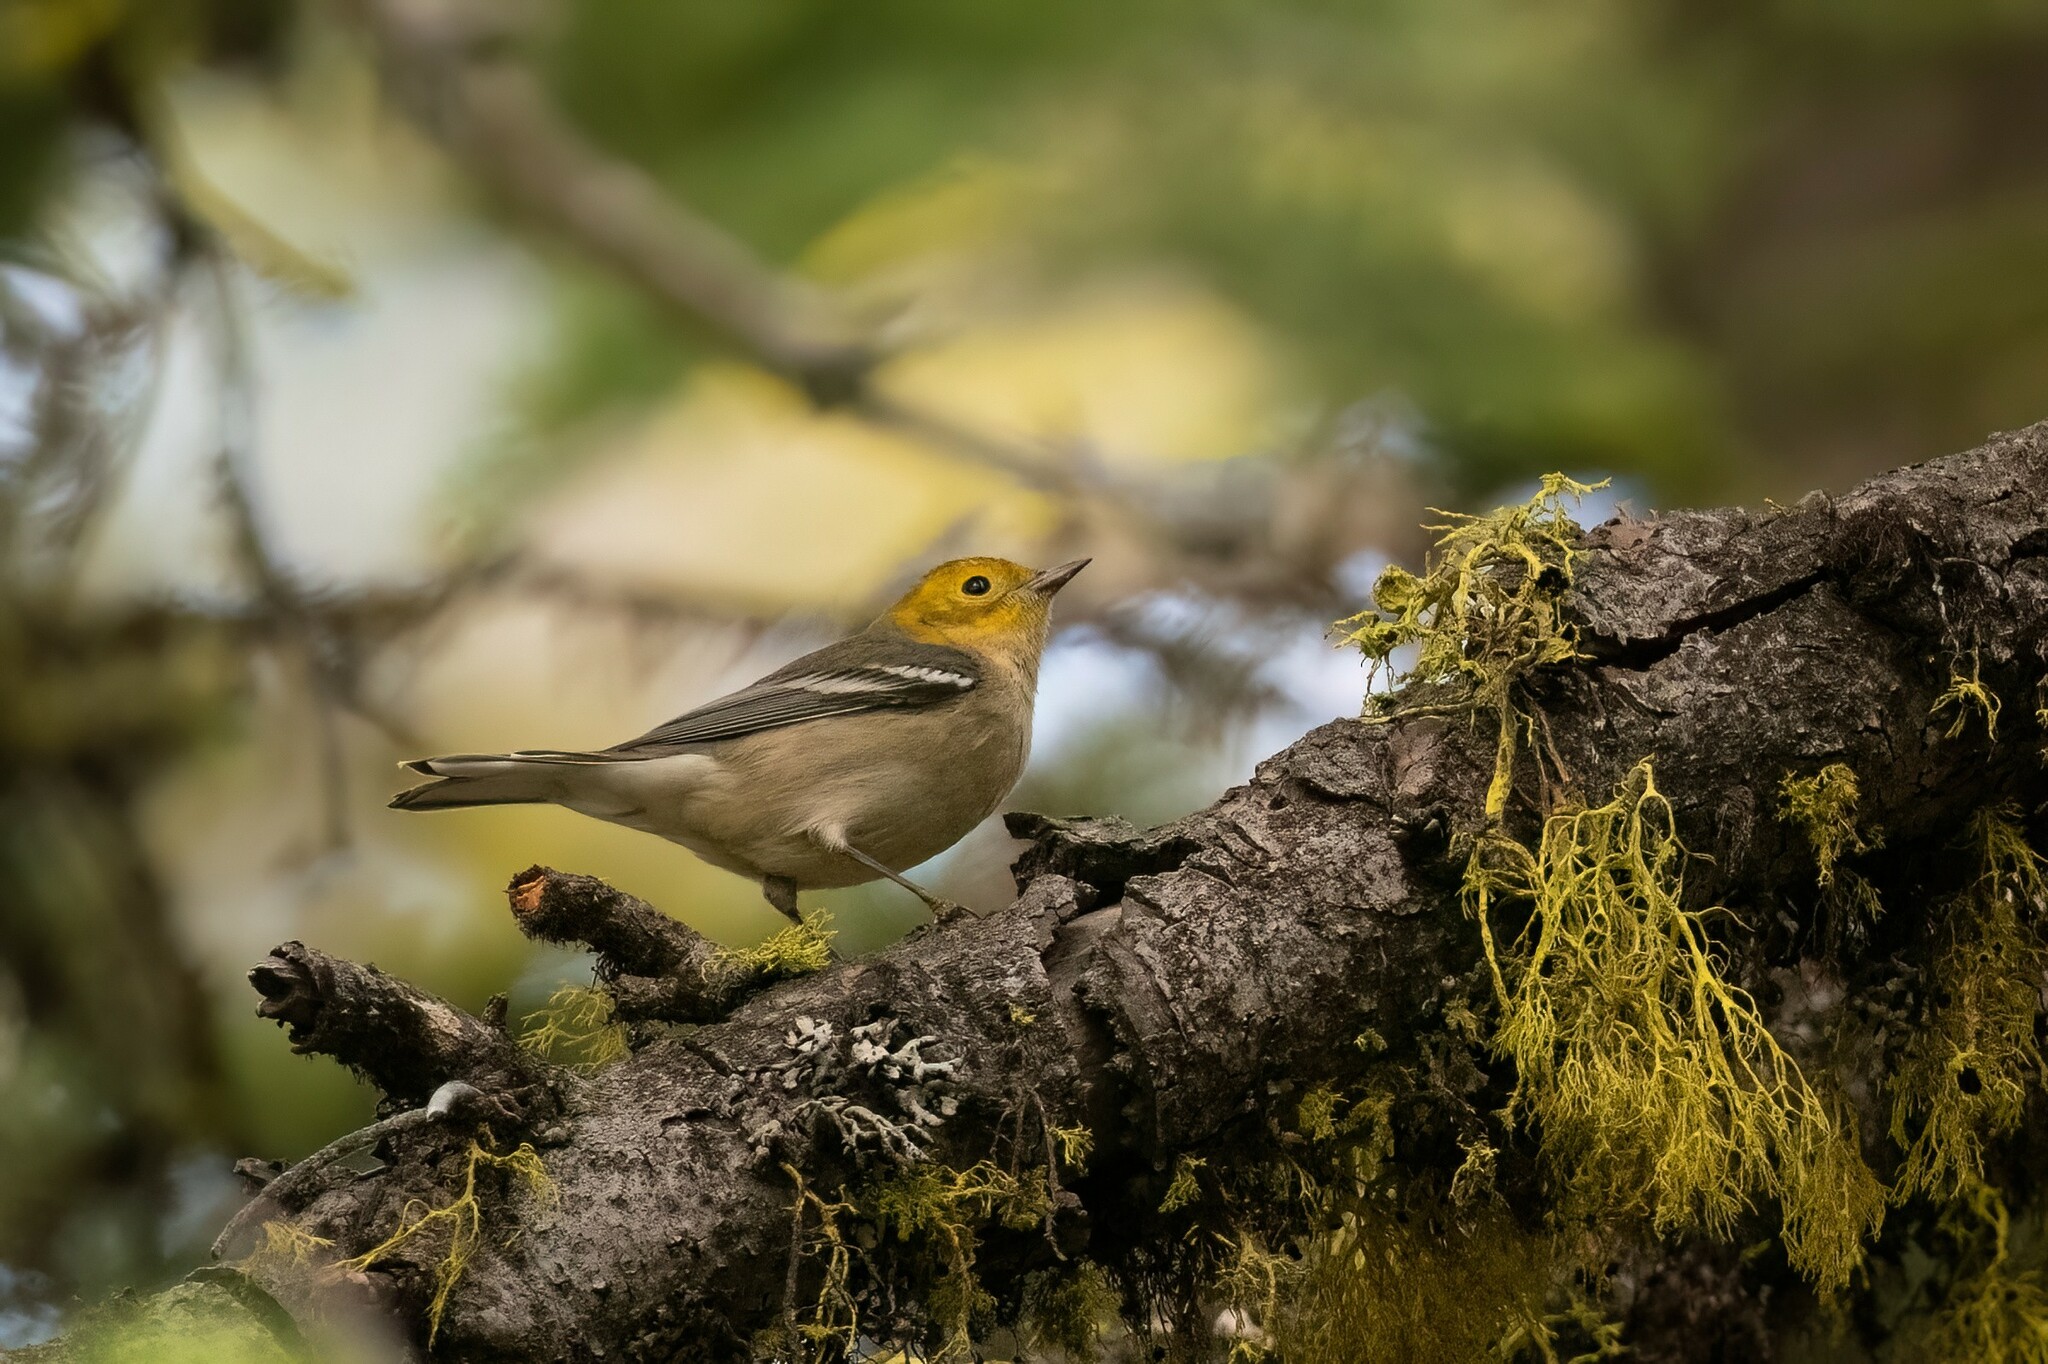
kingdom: Animalia
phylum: Chordata
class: Aves
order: Passeriformes
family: Parulidae
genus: Setophaga
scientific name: Setophaga occidentalis
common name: Hermit warbler
